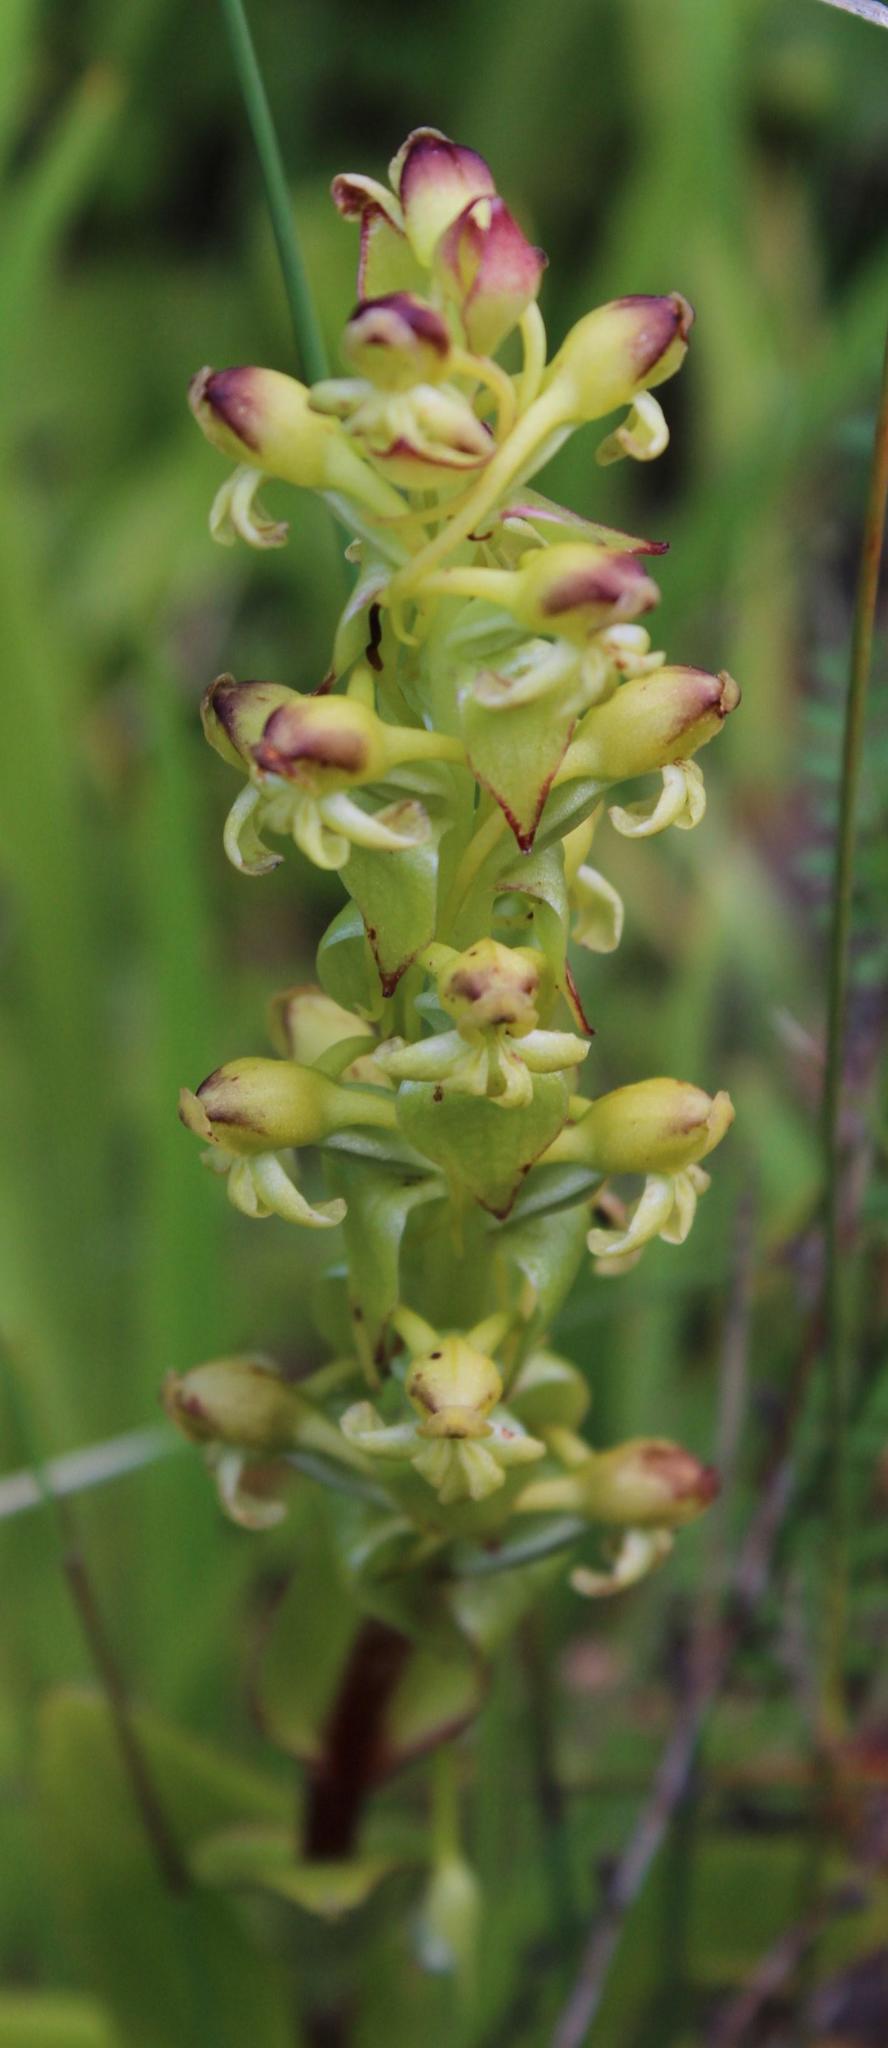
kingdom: Plantae
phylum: Tracheophyta
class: Liliopsida
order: Asparagales
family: Orchidaceae
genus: Satyrium
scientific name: Satyrium odorum
